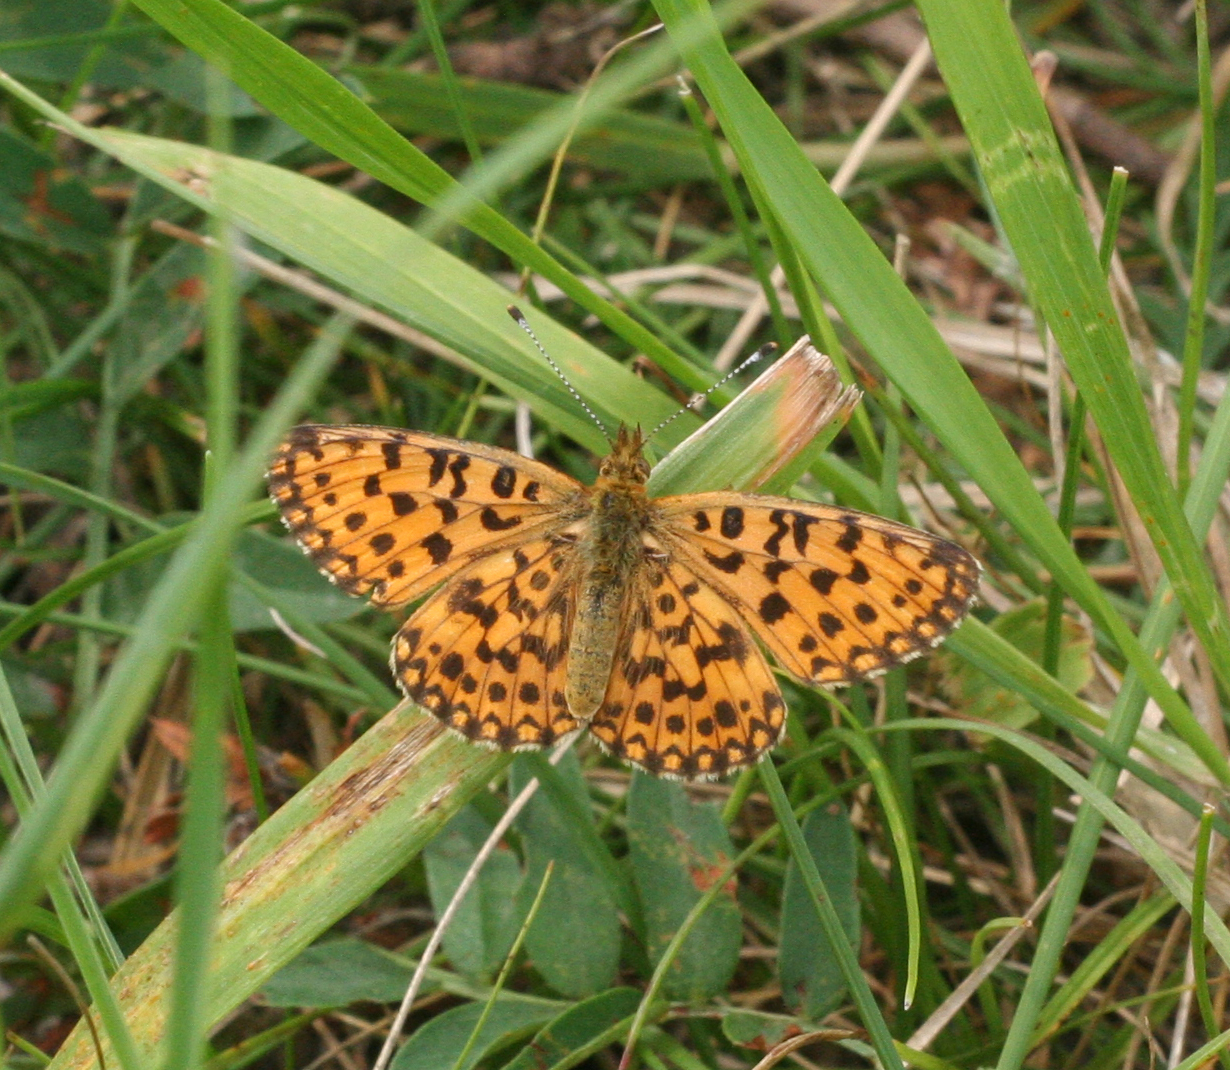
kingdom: Animalia
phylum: Arthropoda
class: Insecta
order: Lepidoptera
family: Nymphalidae
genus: Boloria
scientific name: Boloria perryi
